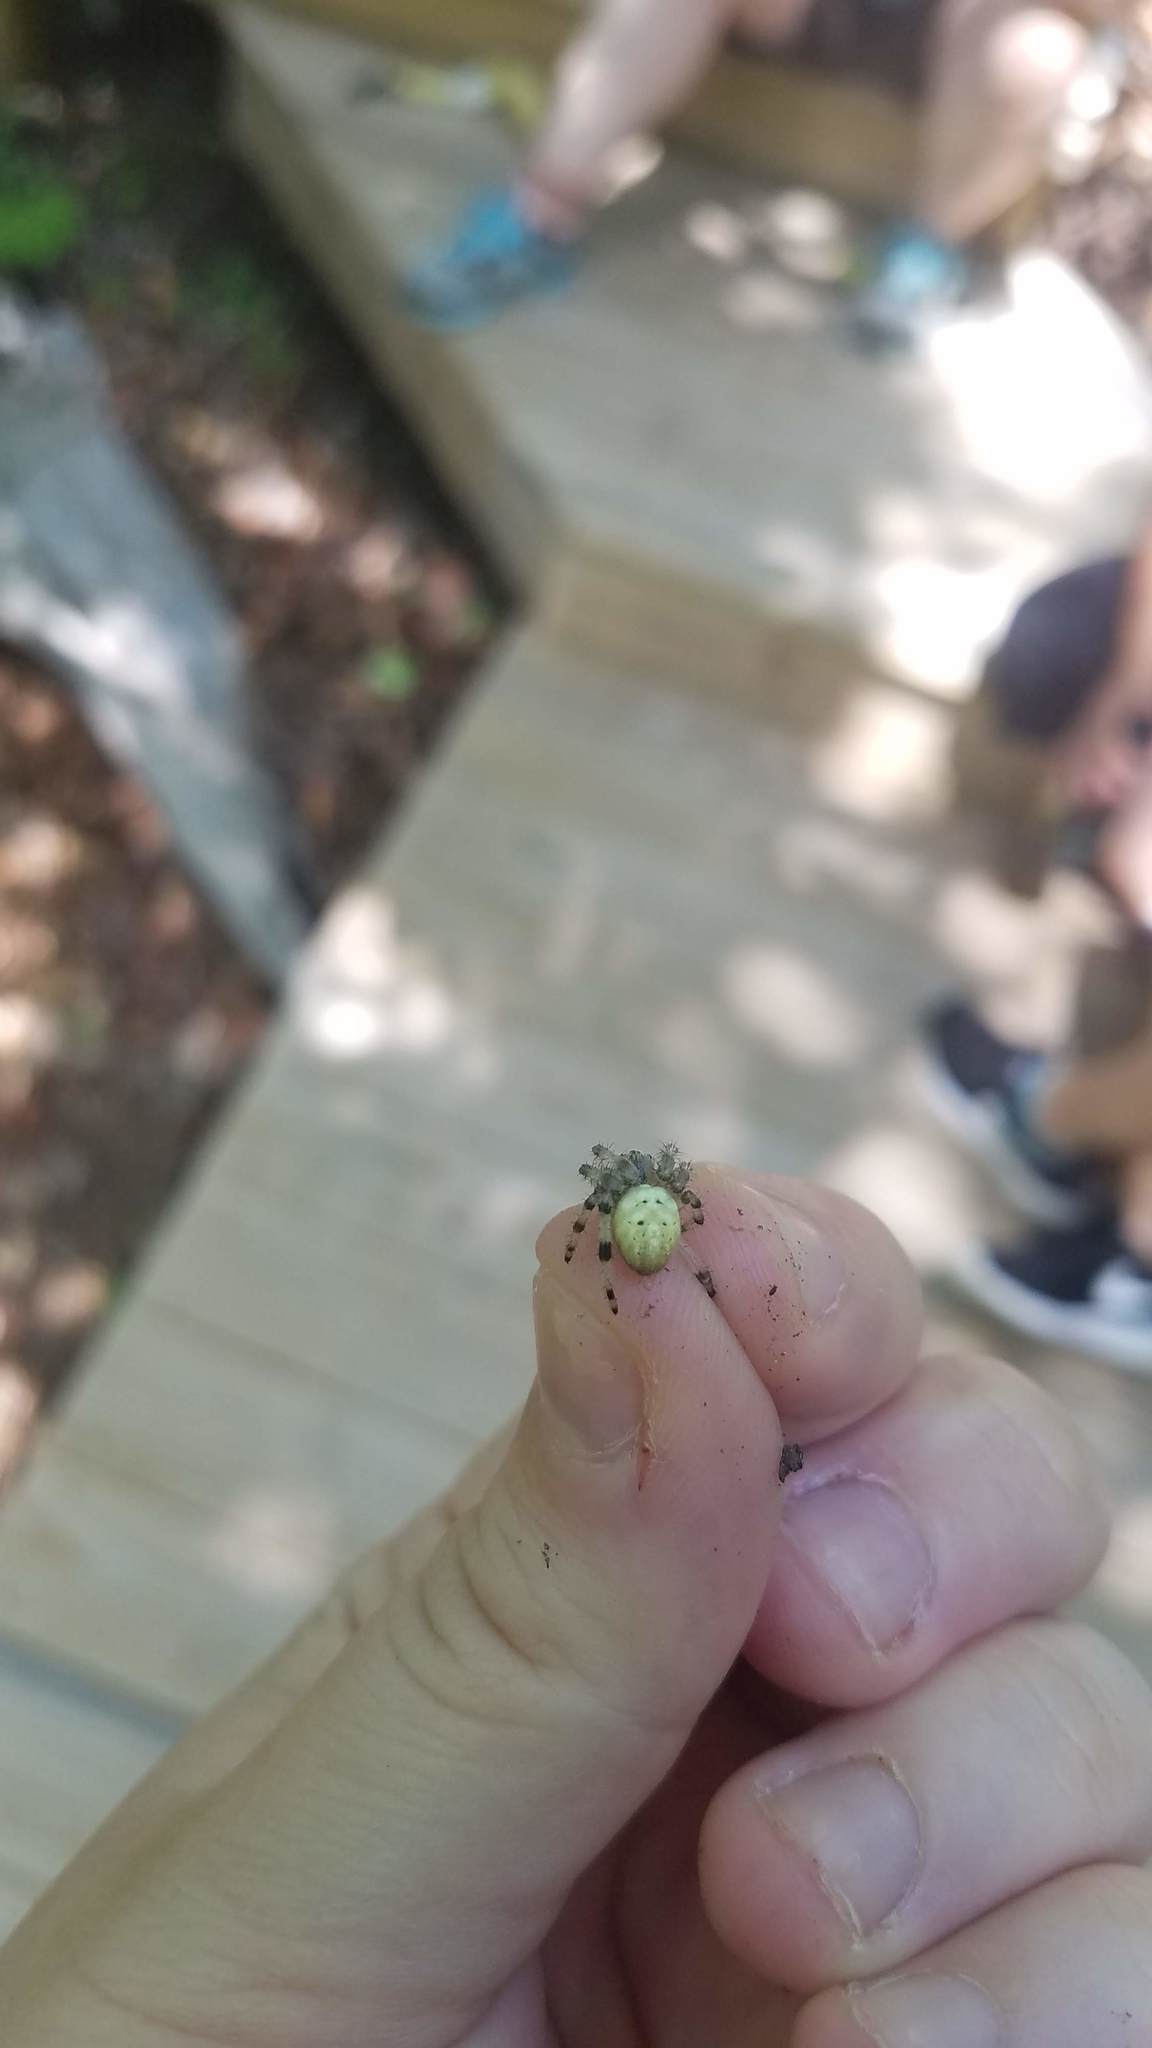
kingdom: Animalia
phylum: Arthropoda
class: Arachnida
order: Araneae
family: Araneidae
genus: Araneus
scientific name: Araneus trifolium
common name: Shamrock orbweaver
